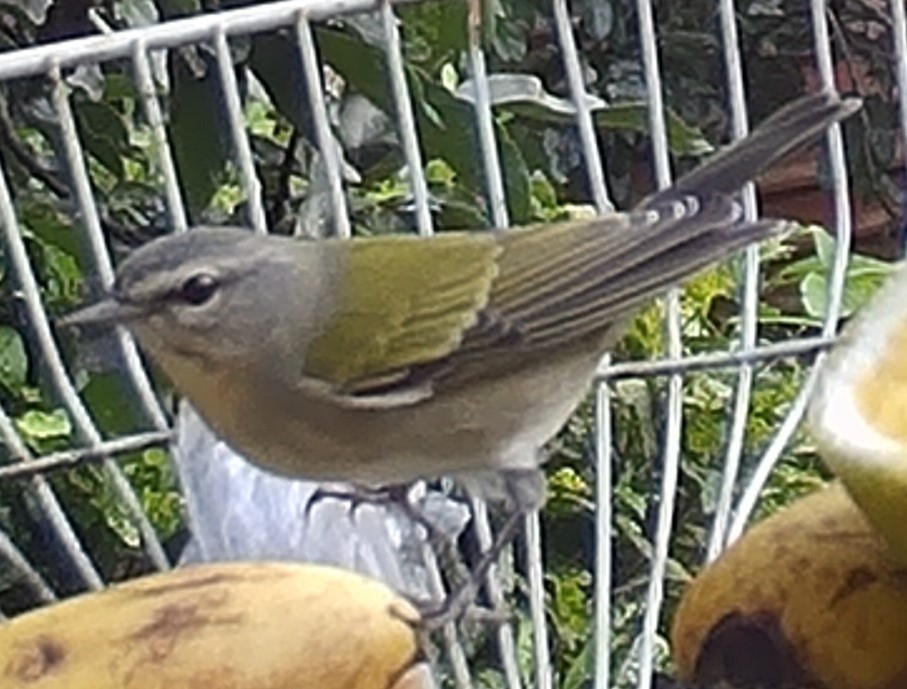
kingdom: Animalia
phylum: Chordata
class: Aves
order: Passeriformes
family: Parulidae
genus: Leiothlypis
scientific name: Leiothlypis peregrina
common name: Tennessee warbler
